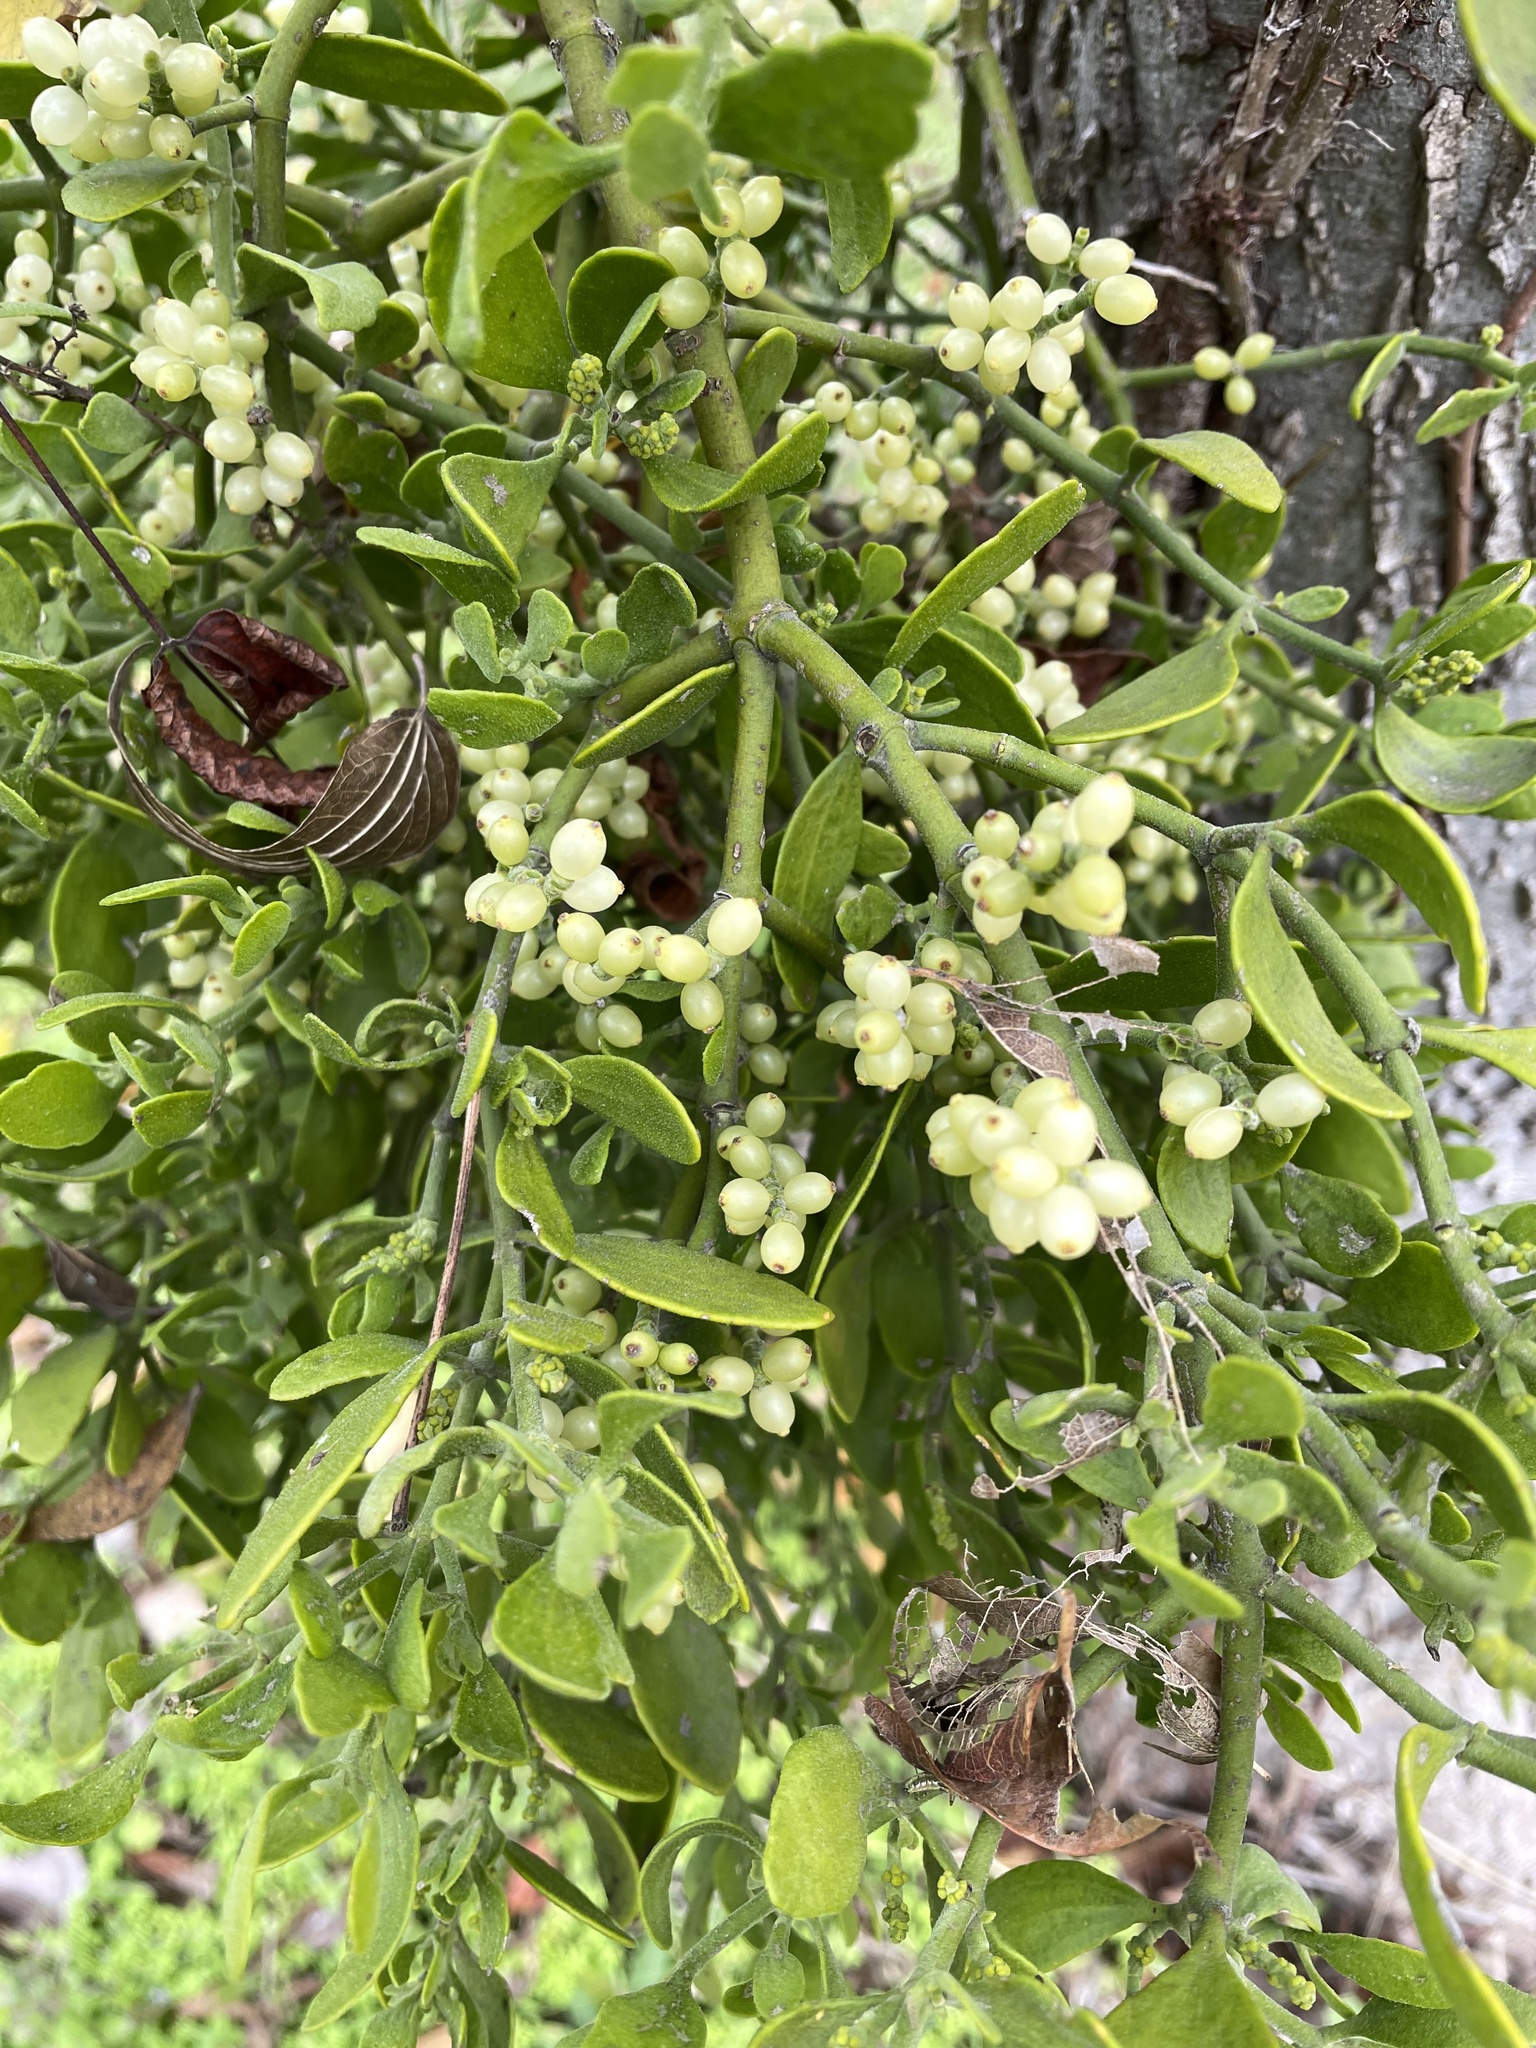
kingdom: Plantae
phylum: Tracheophyta
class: Magnoliopsida
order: Santalales
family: Viscaceae
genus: Phoradendron
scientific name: Phoradendron leucarpum
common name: Pacific mistletoe
